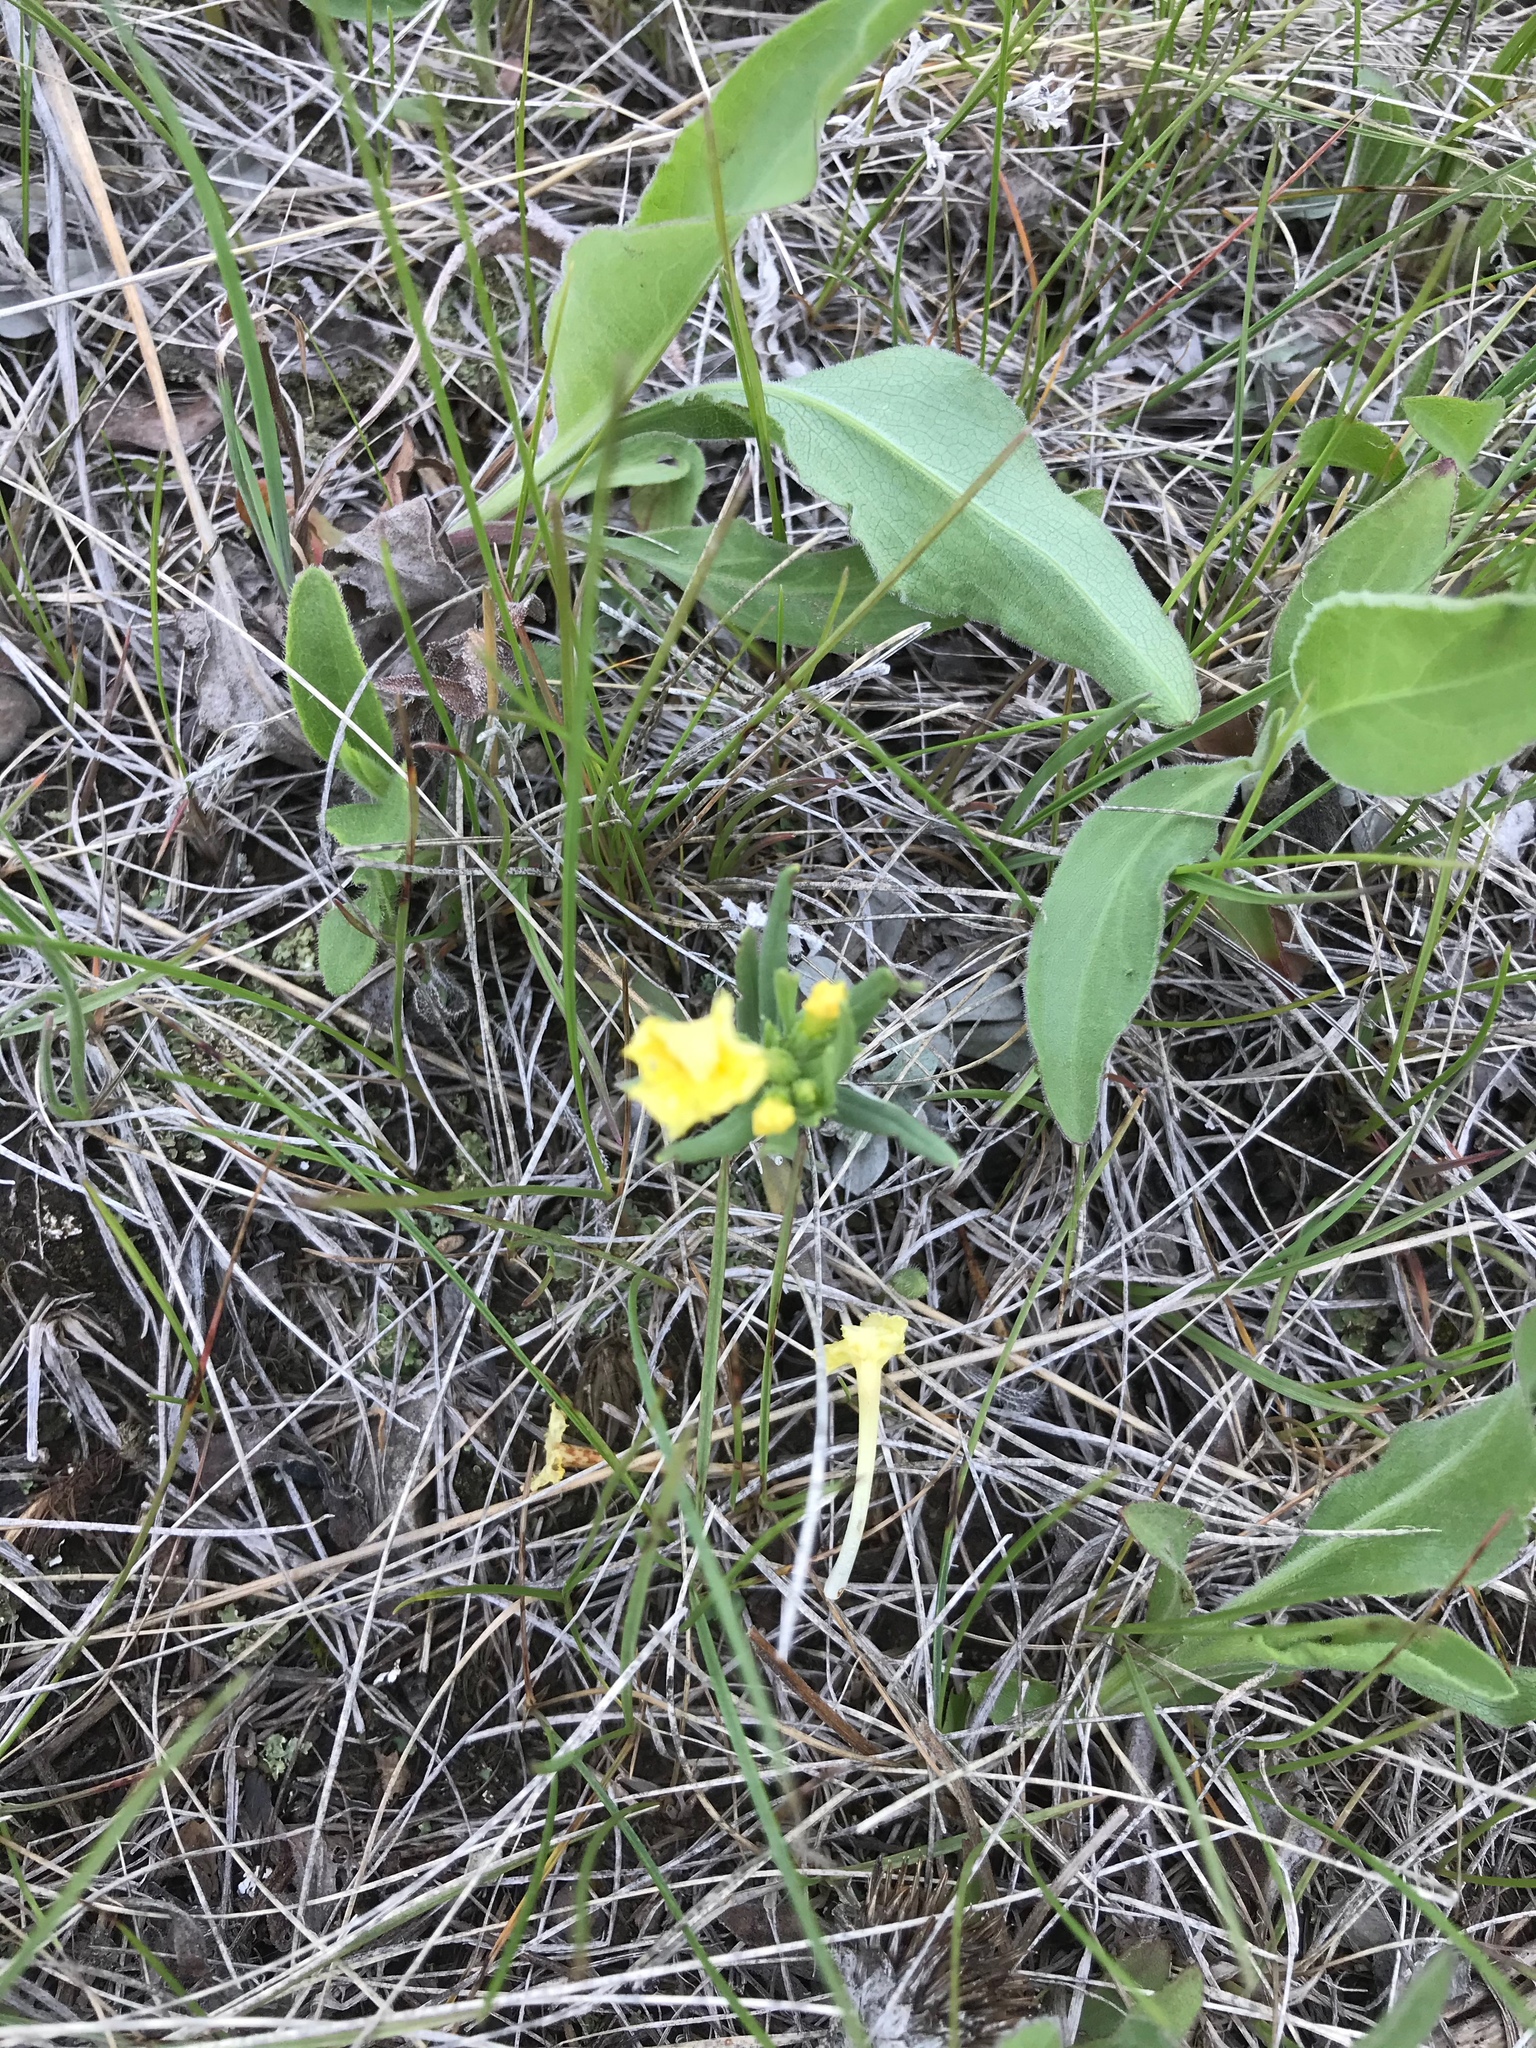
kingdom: Plantae
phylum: Tracheophyta
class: Magnoliopsida
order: Boraginales
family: Boraginaceae
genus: Lithospermum
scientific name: Lithospermum incisum
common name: Fringed gromwell
